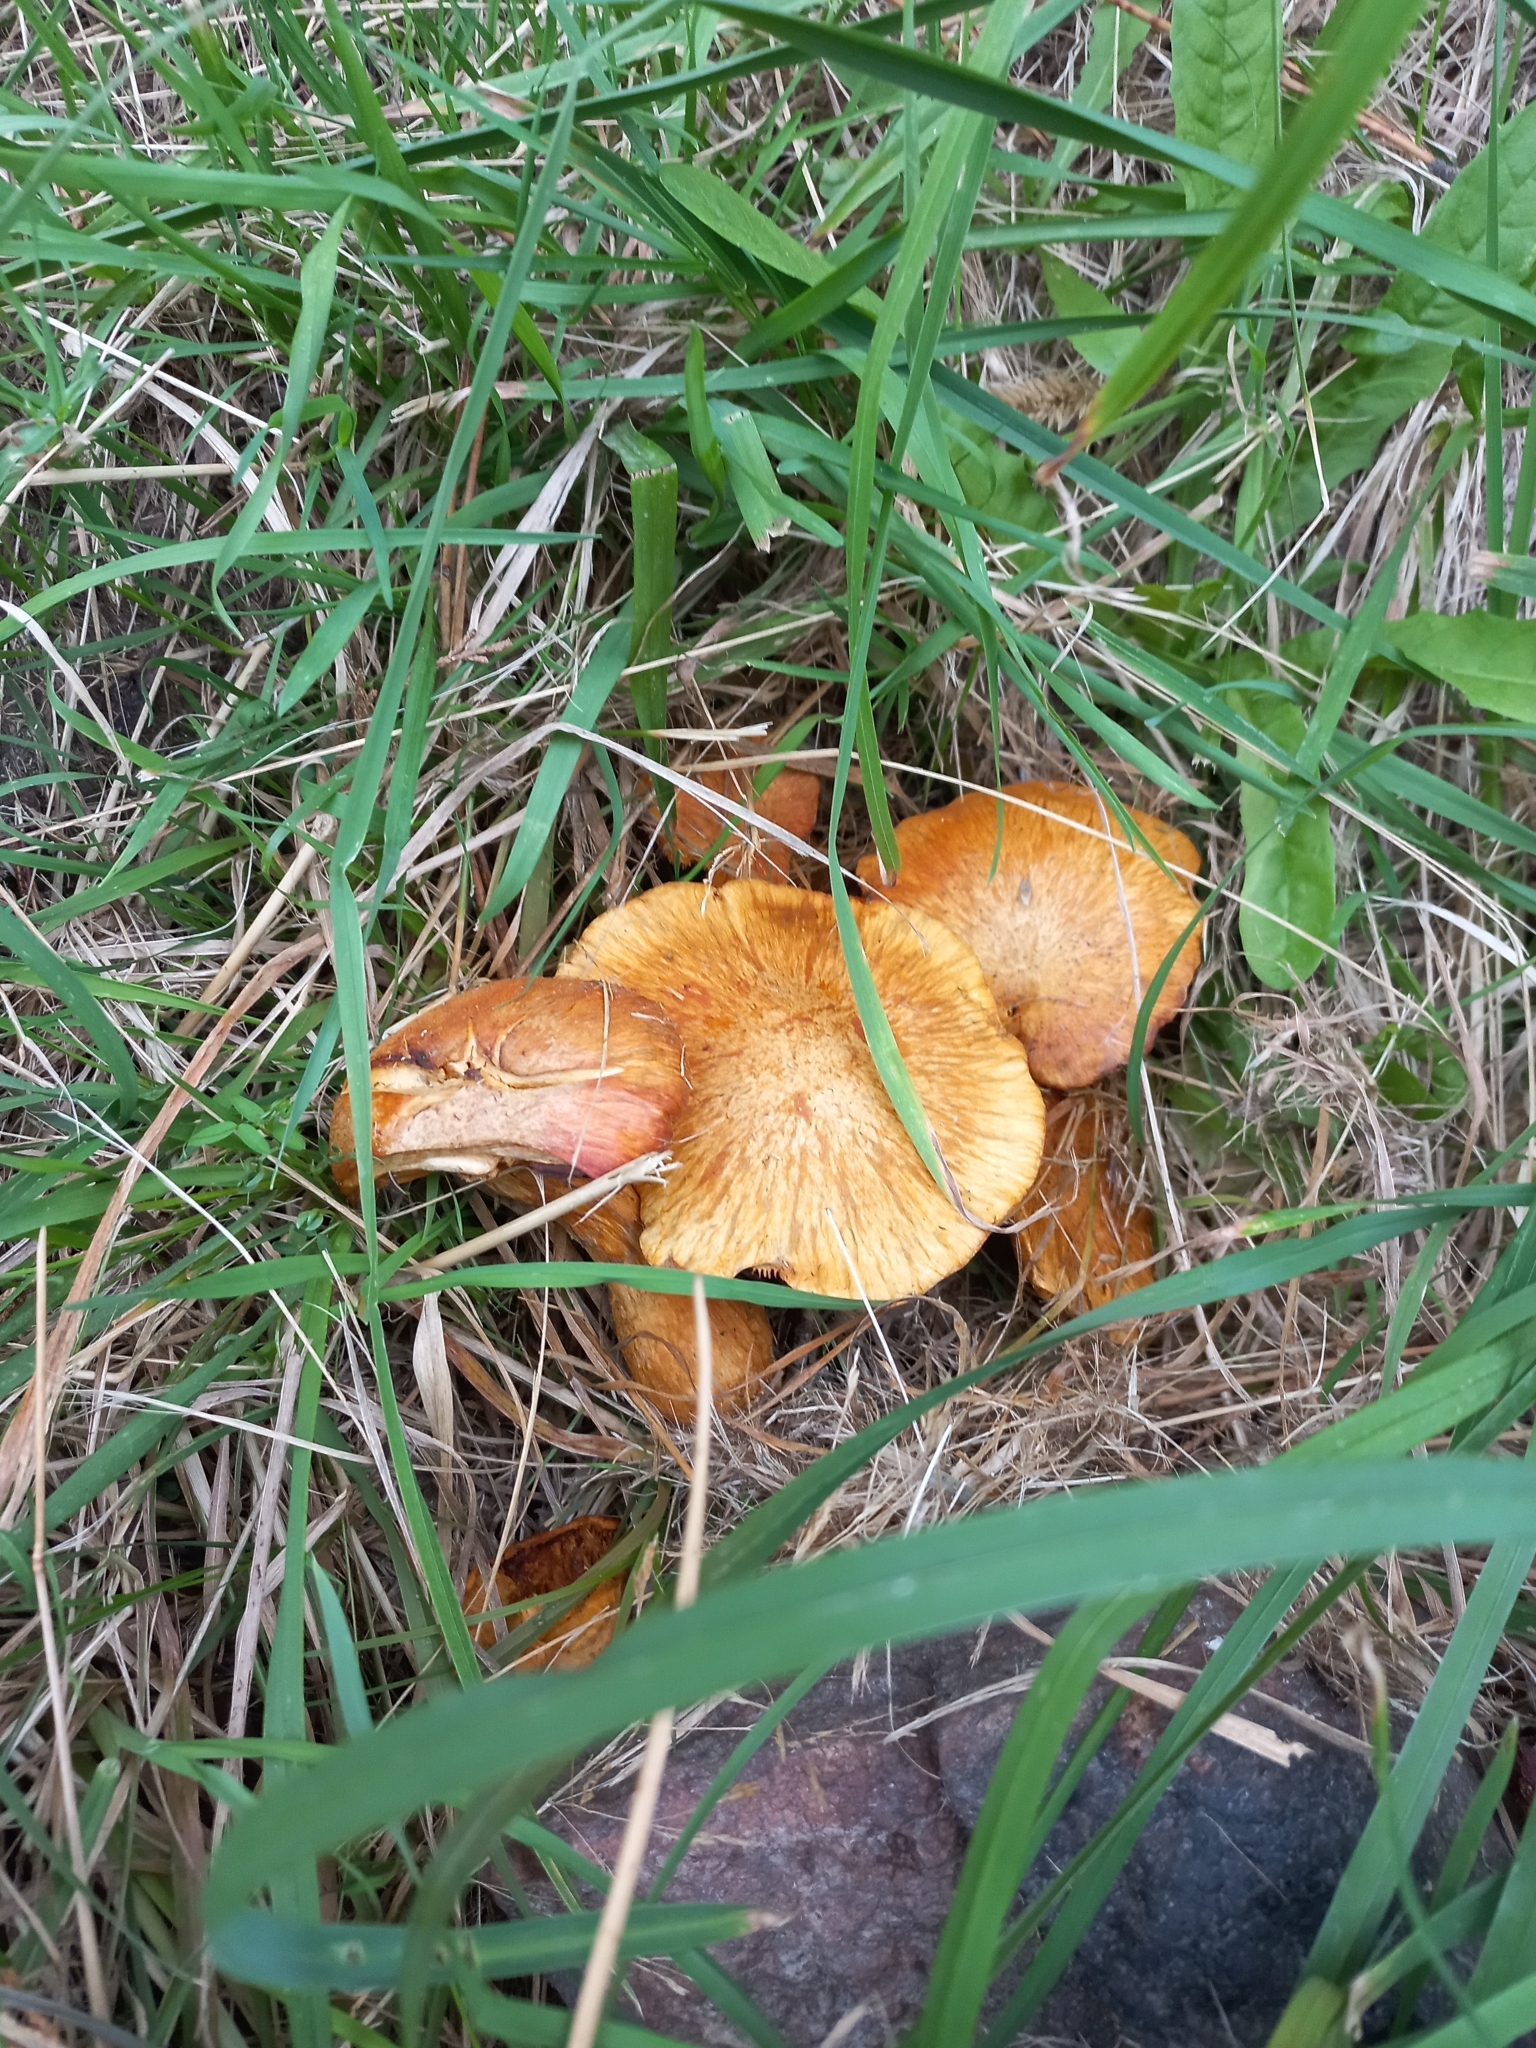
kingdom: Fungi
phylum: Basidiomycota
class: Agaricomycetes
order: Agaricales
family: Hymenogastraceae
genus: Gymnopilus
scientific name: Gymnopilus junonius
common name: Spectacular rustgill
